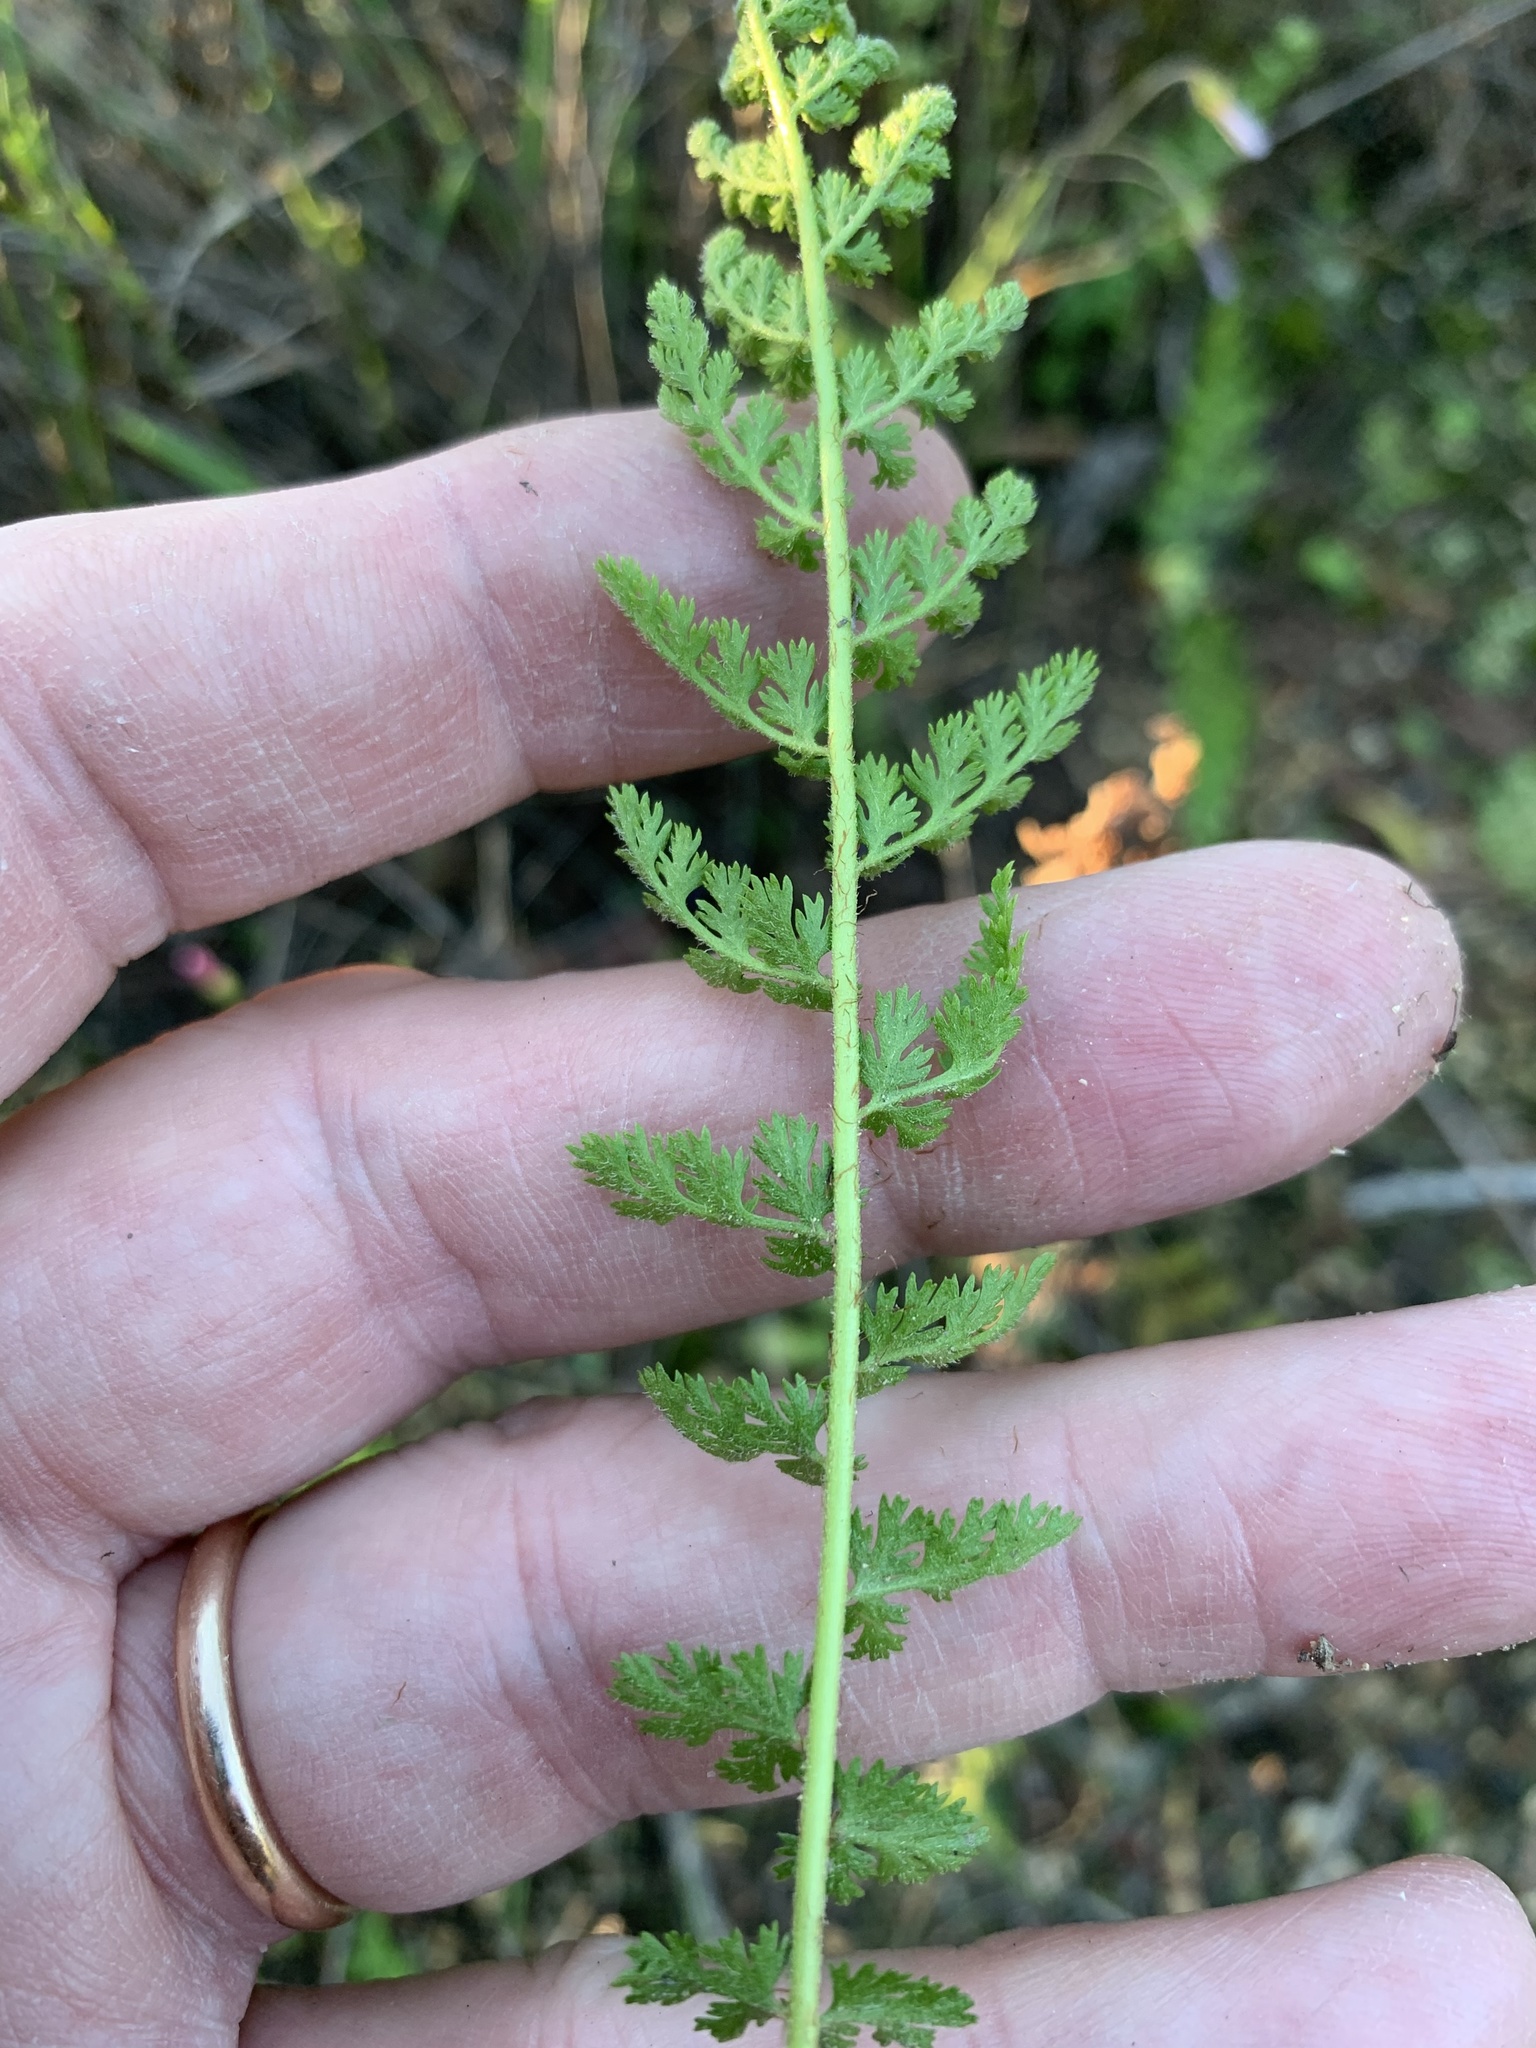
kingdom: Plantae
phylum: Tracheophyta
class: Polypodiopsida
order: Schizaeales
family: Anemiaceae
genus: Anemia
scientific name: Anemia caffrorum
